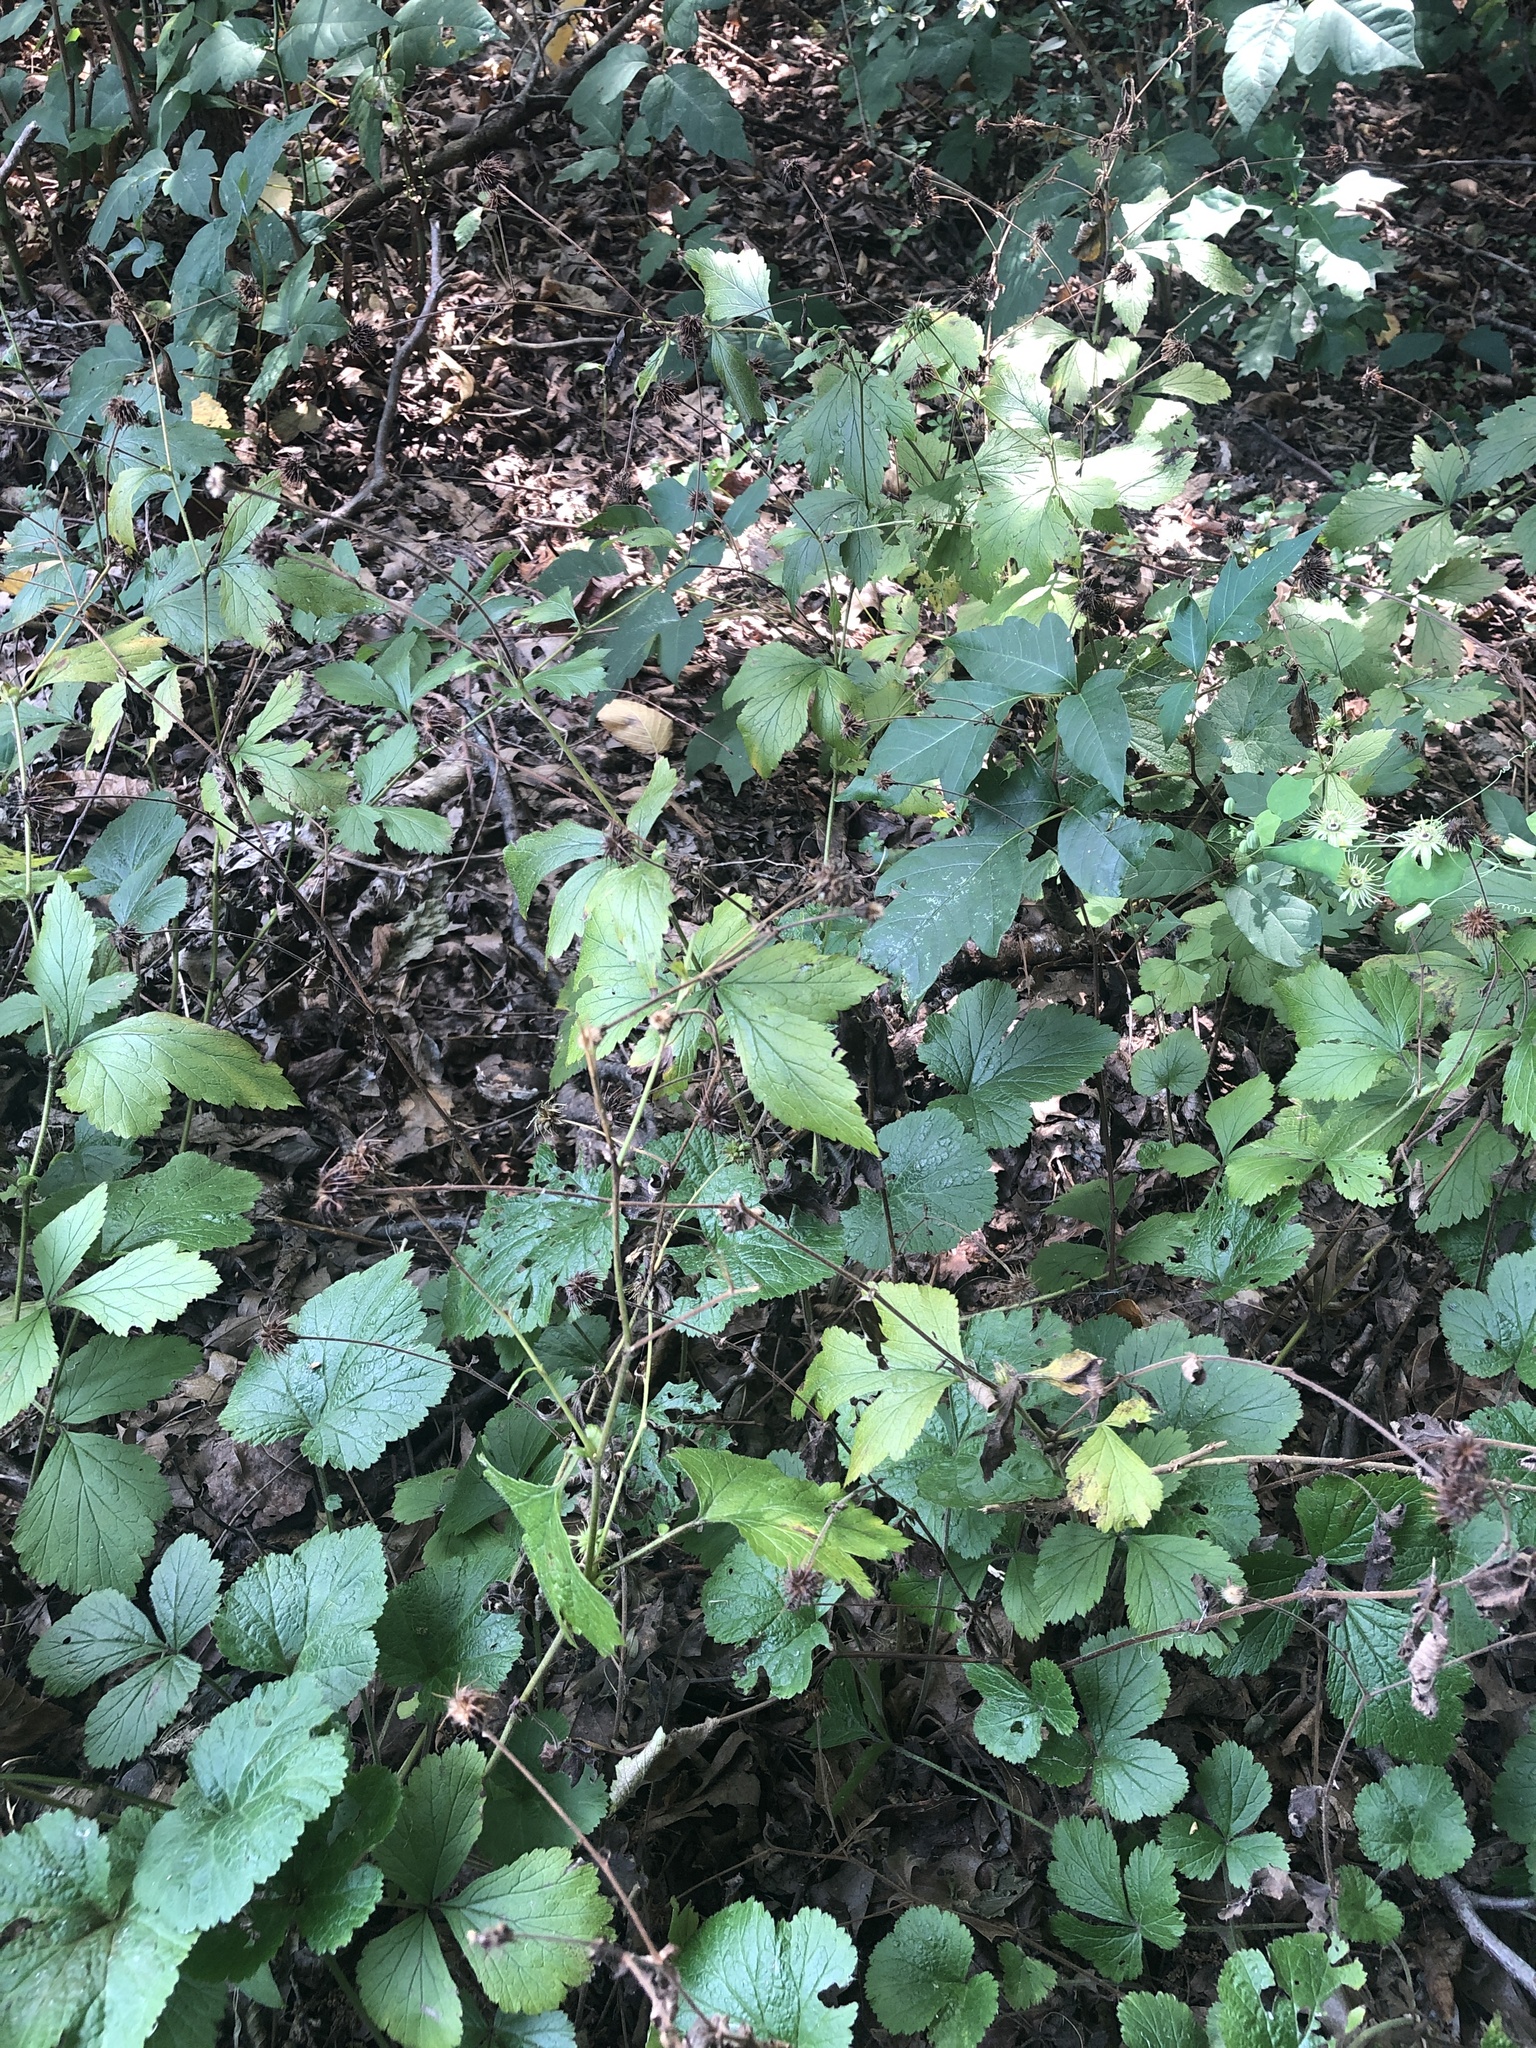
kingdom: Plantae
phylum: Tracheophyta
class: Magnoliopsida
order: Rosales
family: Rosaceae
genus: Geum
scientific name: Geum canadense
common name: White avens
